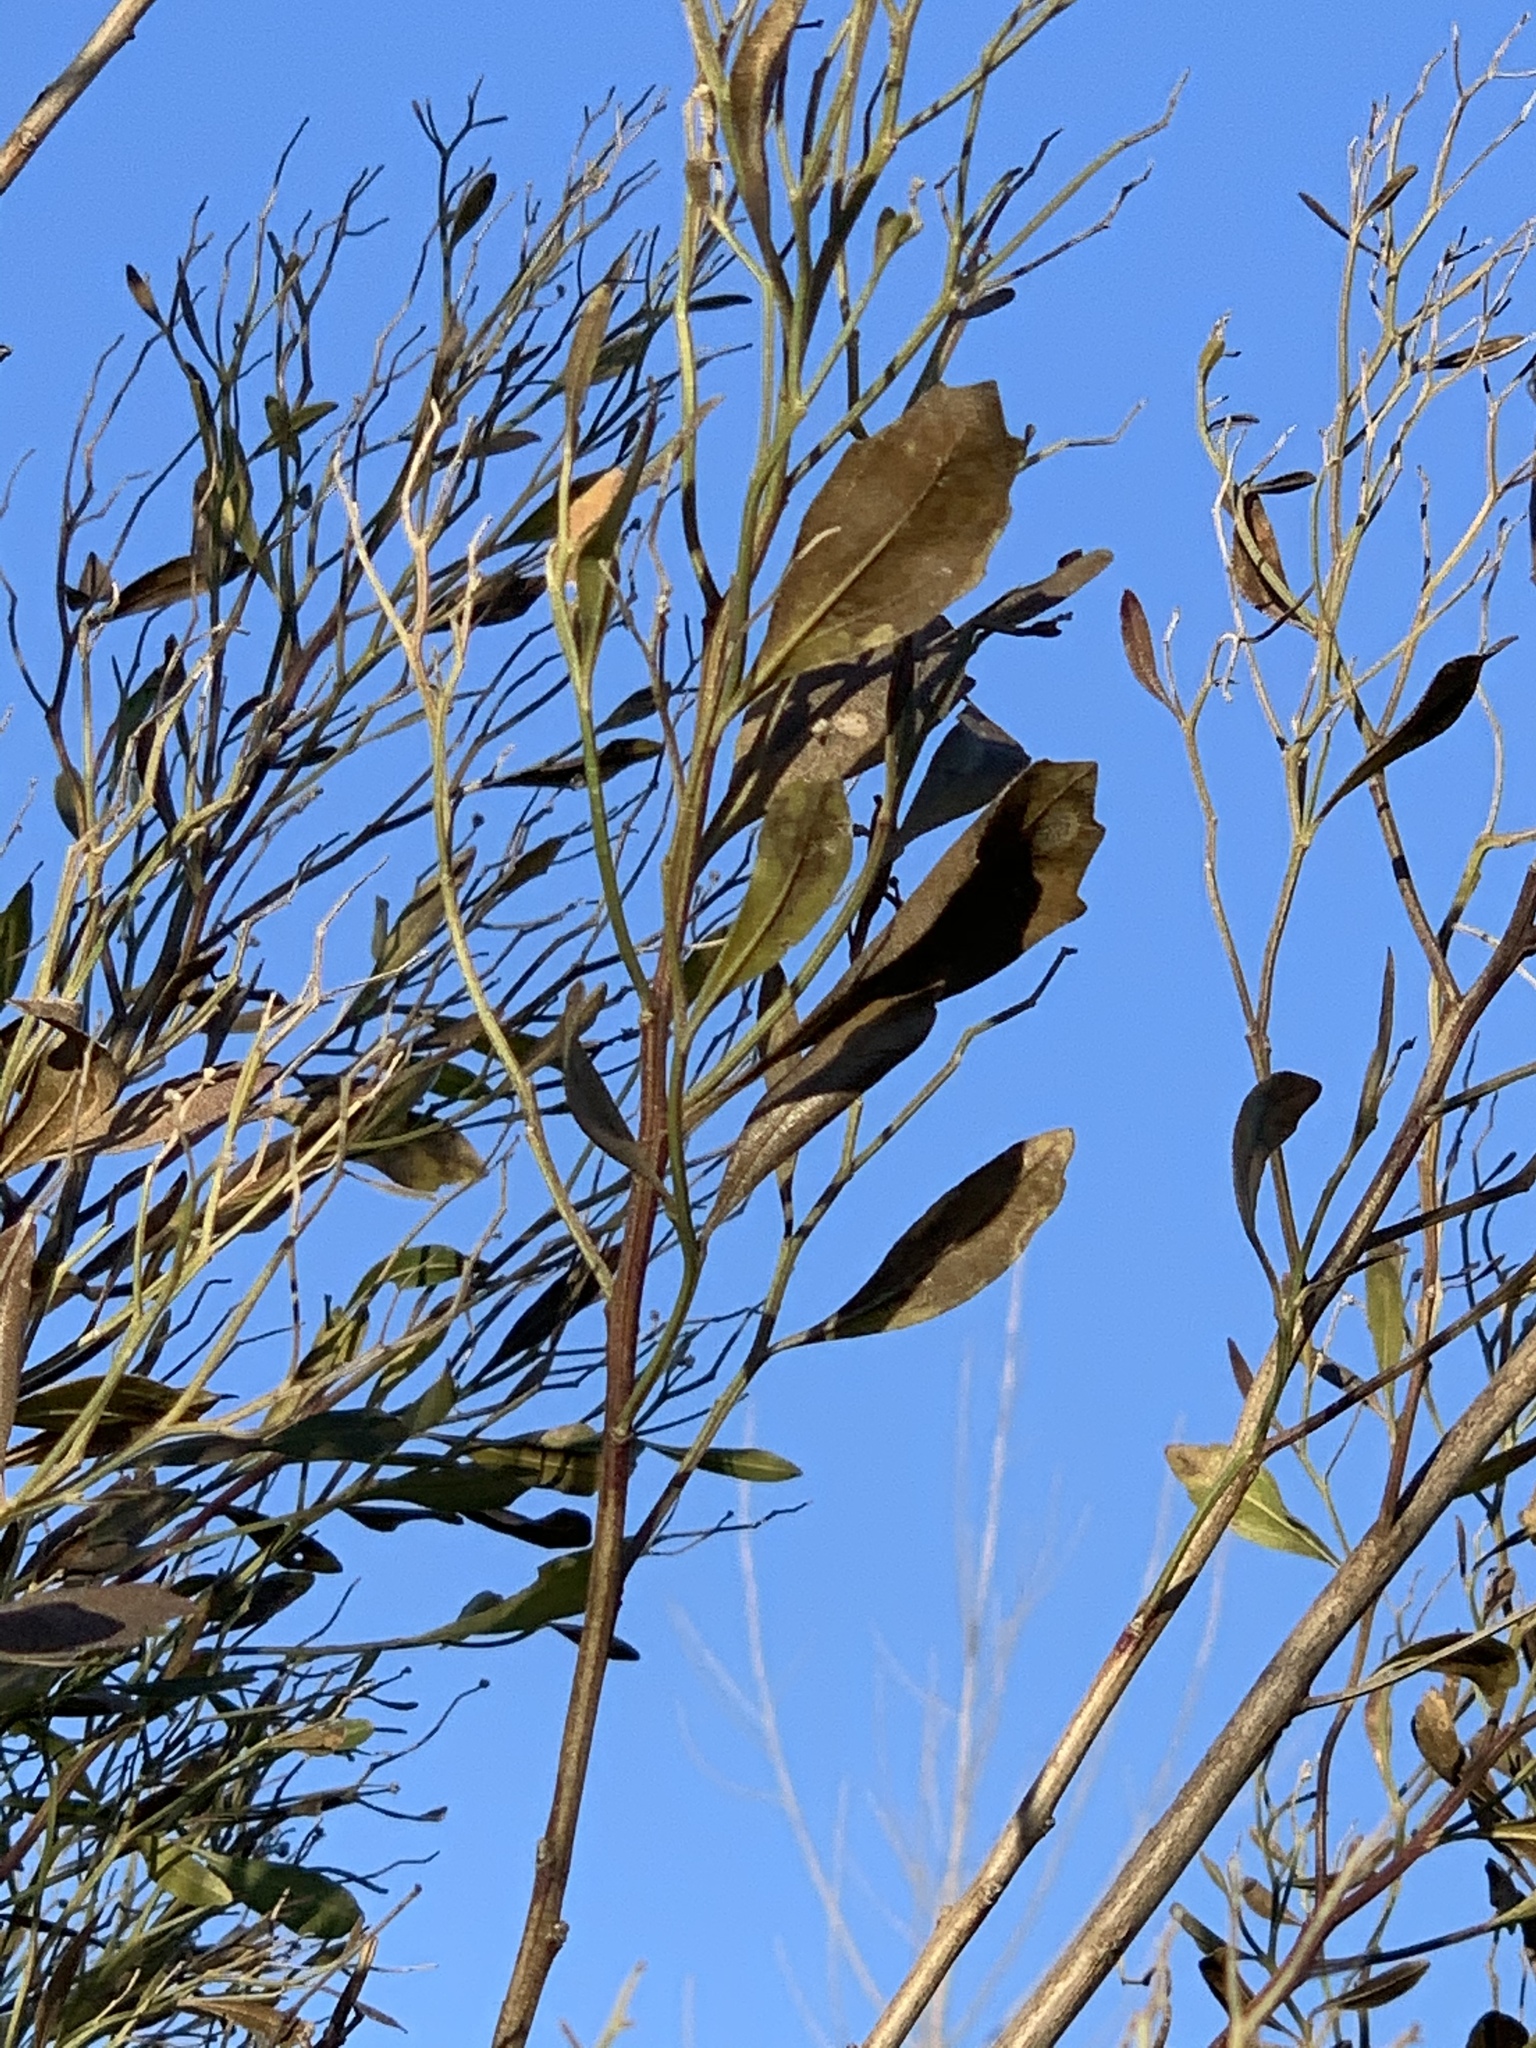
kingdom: Plantae
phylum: Tracheophyta
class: Magnoliopsida
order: Asterales
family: Asteraceae
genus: Baccharis
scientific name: Baccharis halimifolia
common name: Eastern baccharis
